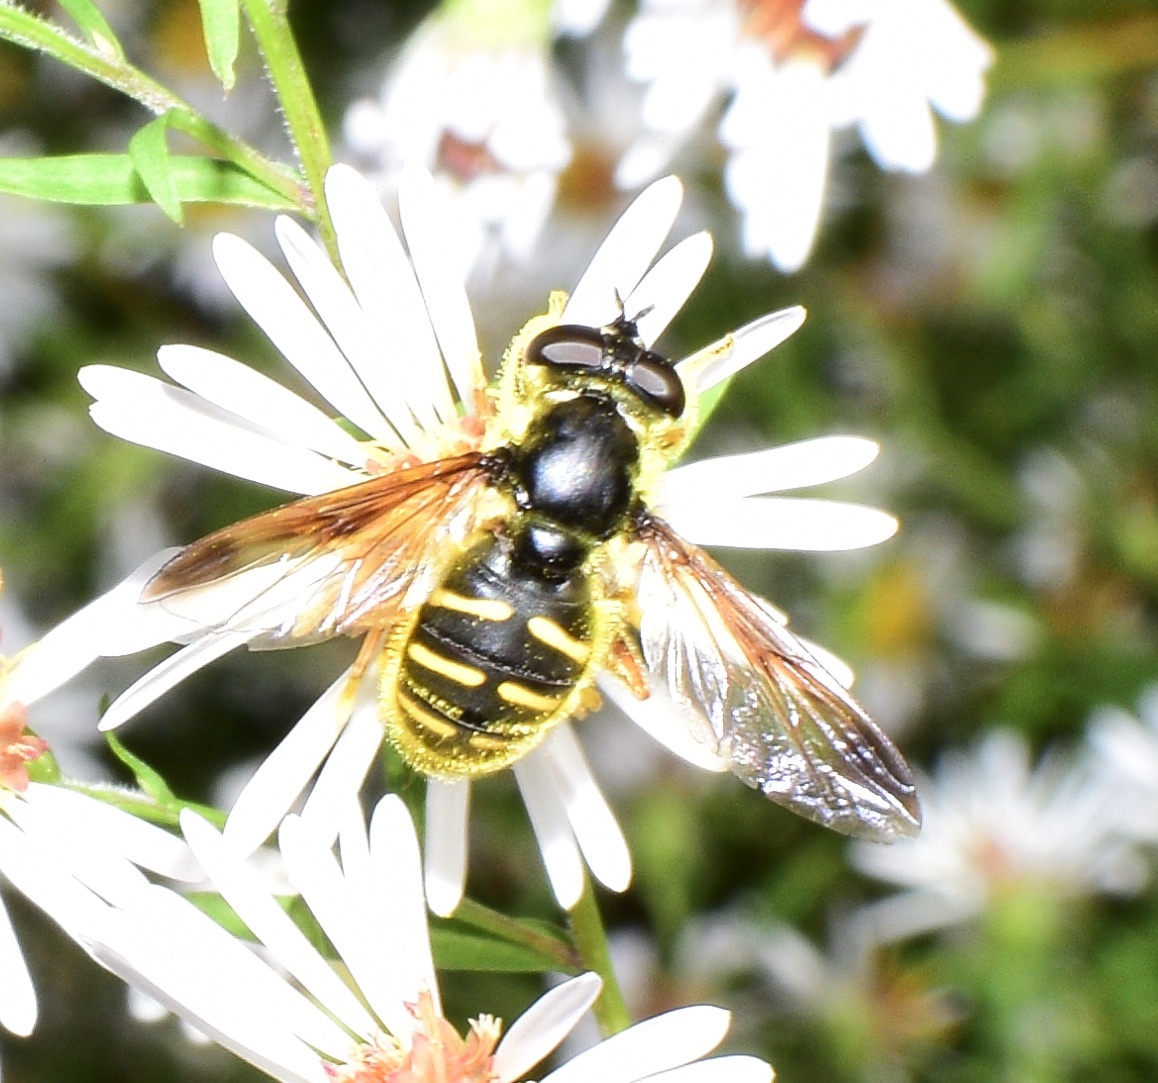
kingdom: Animalia
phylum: Arthropoda
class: Insecta
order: Diptera
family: Syrphidae
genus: Sericomyia
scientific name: Sericomyia chrysotoxoides
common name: Oblique-banded pond fly
